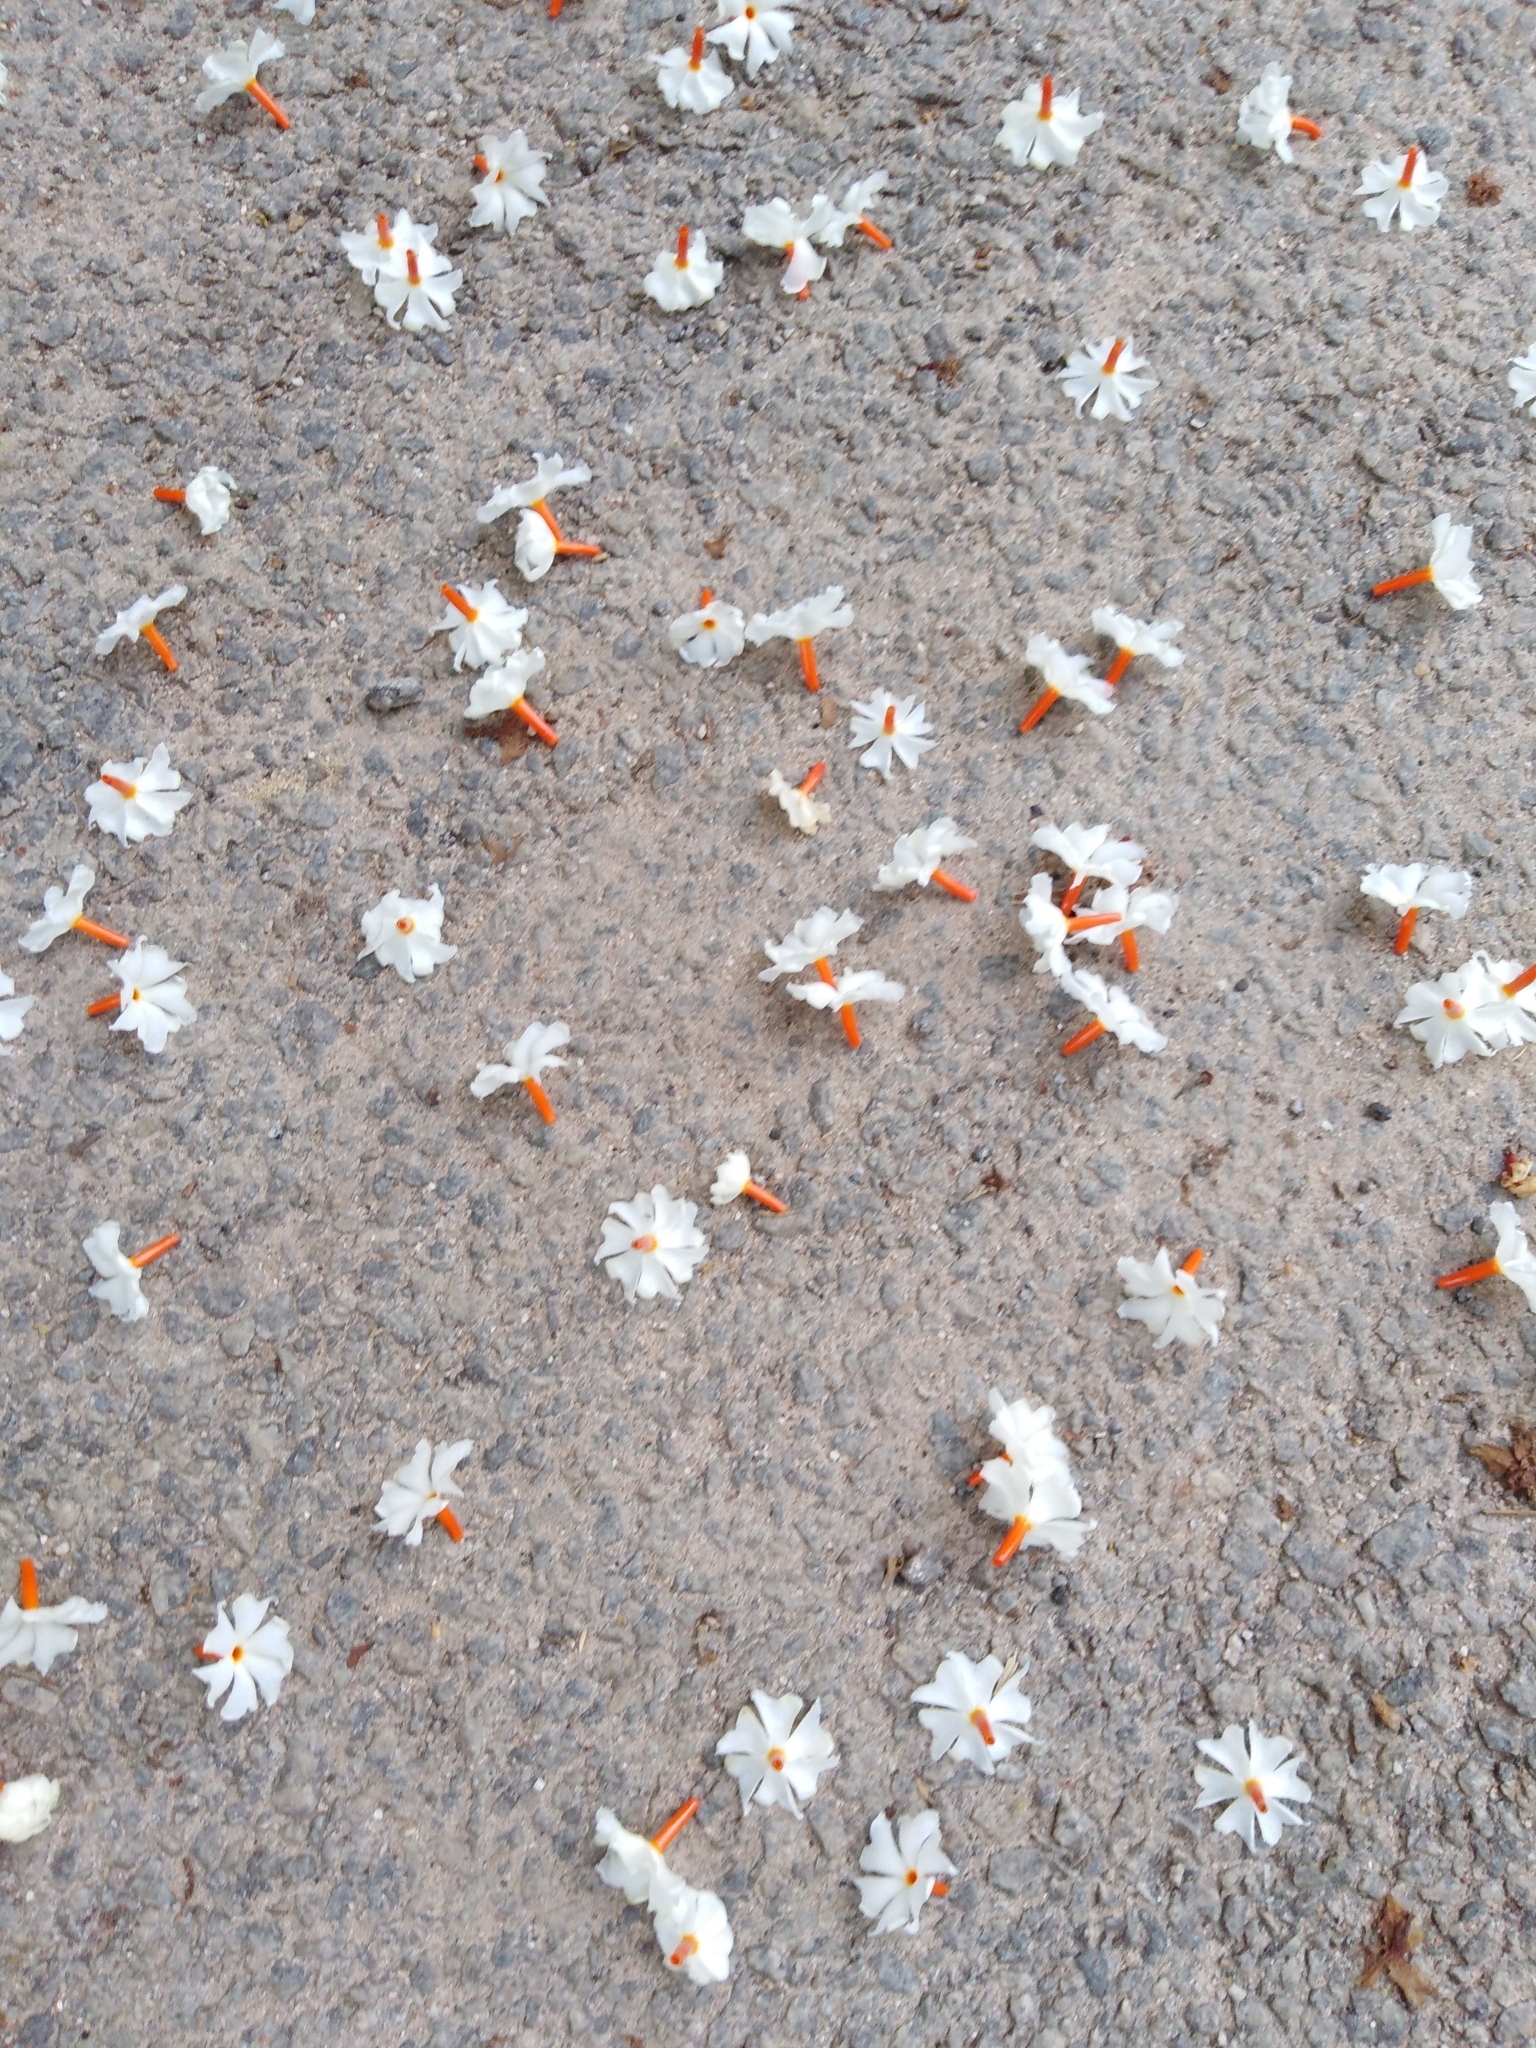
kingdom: Plantae
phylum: Tracheophyta
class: Magnoliopsida
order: Lamiales
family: Oleaceae
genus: Nyctanthes
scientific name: Nyctanthes arbor-tristis
